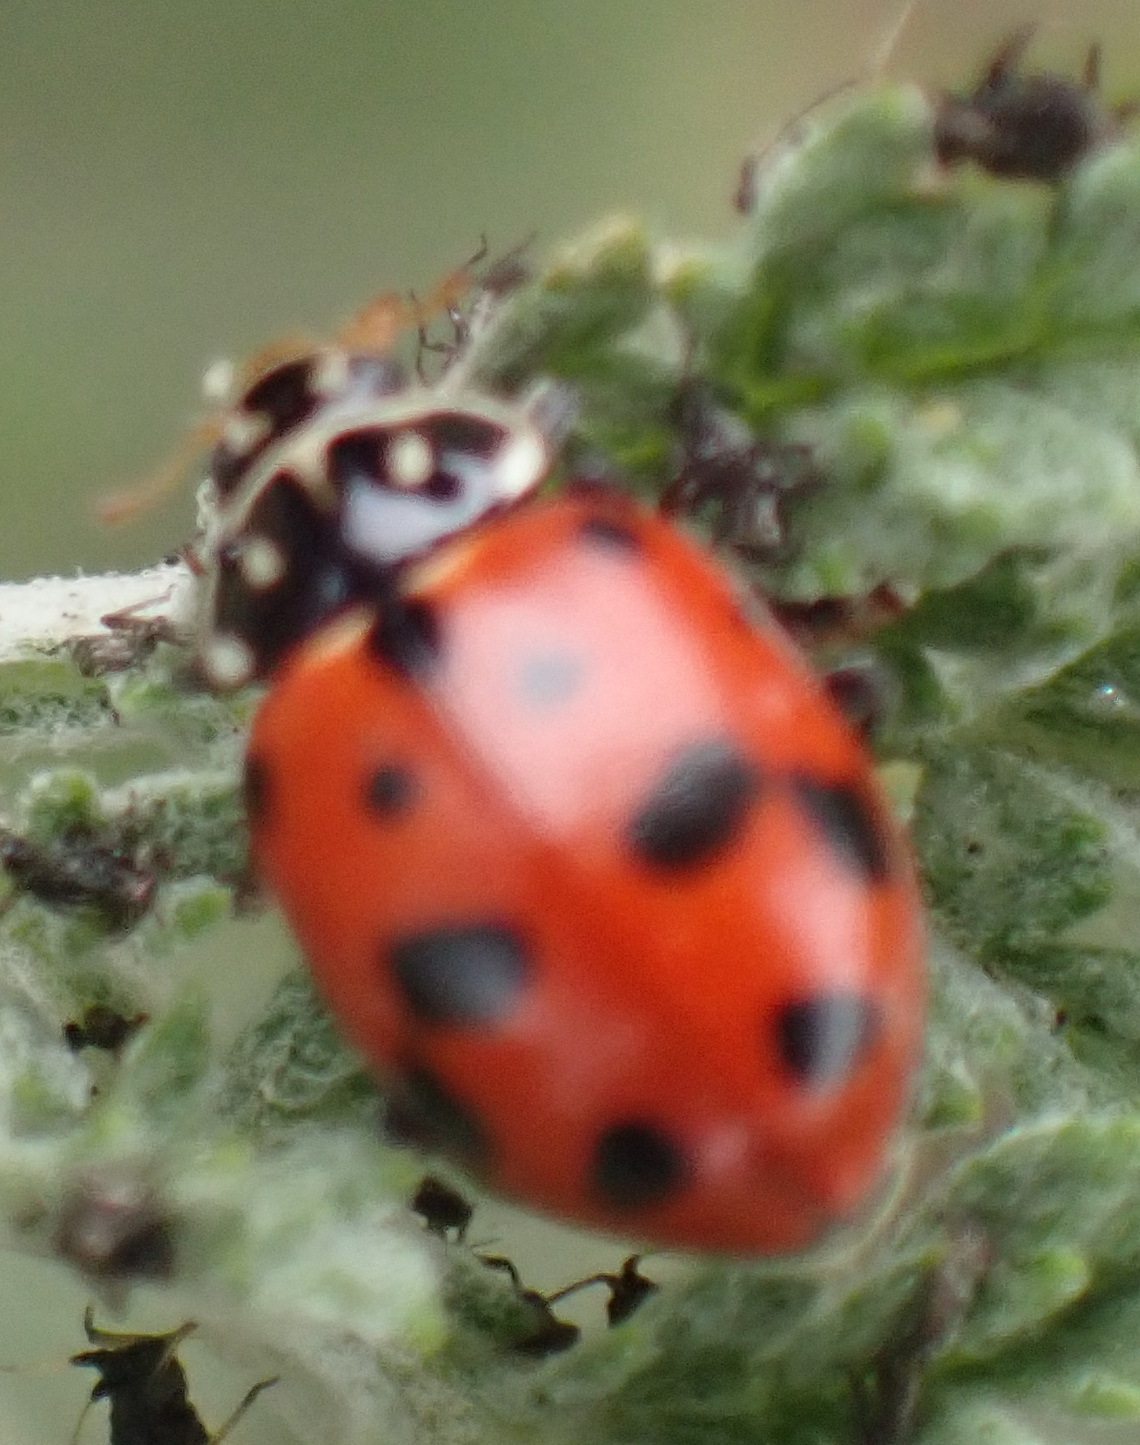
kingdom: Animalia
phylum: Arthropoda
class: Insecta
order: Coleoptera
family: Coccinellidae
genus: Hippodamia
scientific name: Hippodamia variegata
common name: Ladybird beetle
